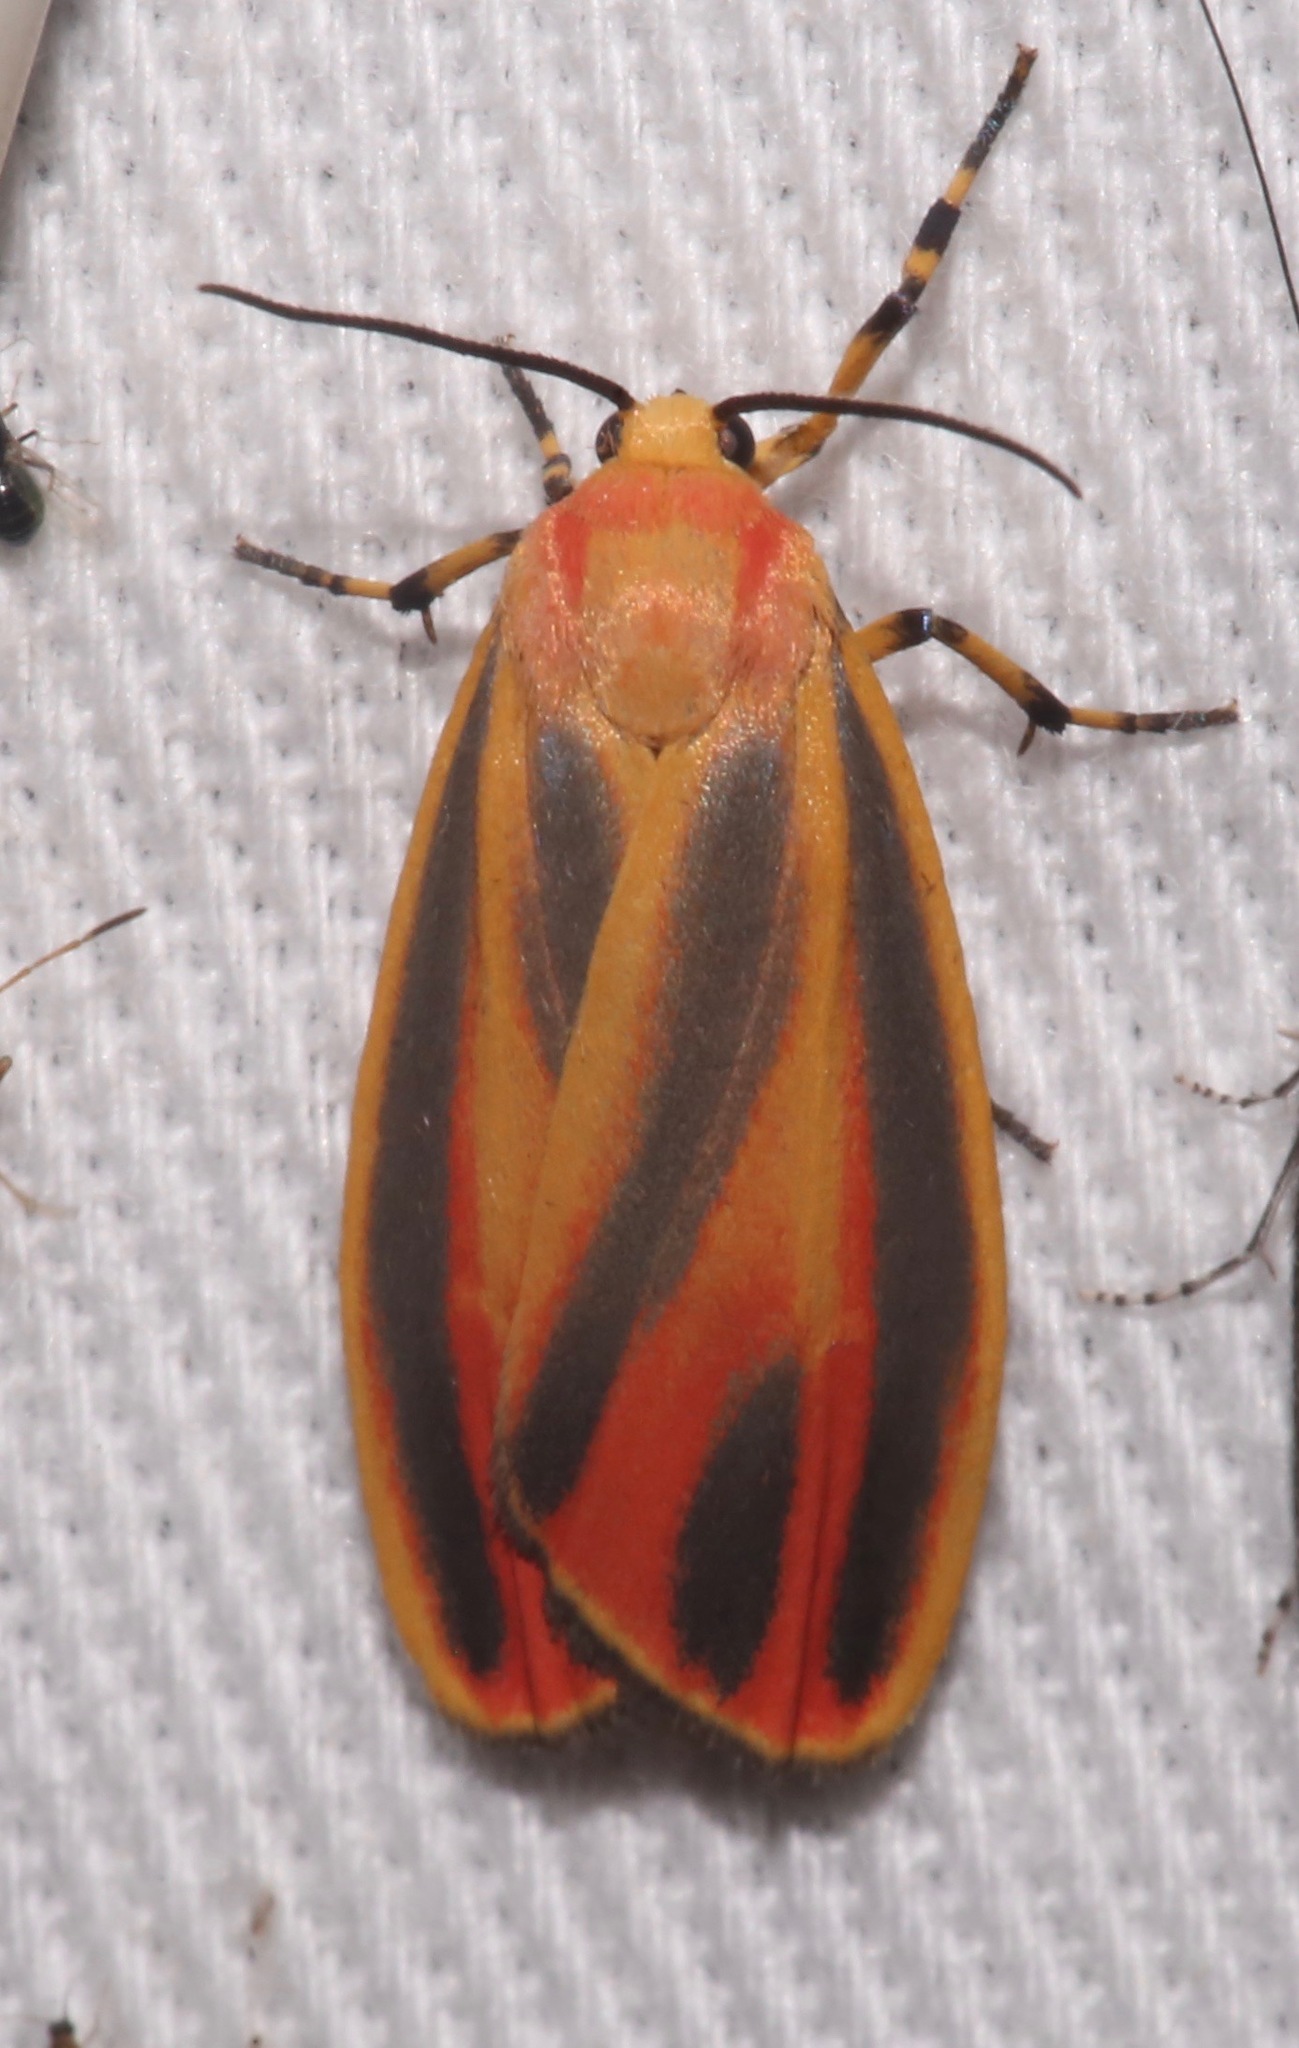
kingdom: Animalia
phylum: Arthropoda
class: Insecta
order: Lepidoptera
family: Erebidae
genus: Hypoprepia
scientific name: Hypoprepia fucosa
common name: Painted lichen moth
